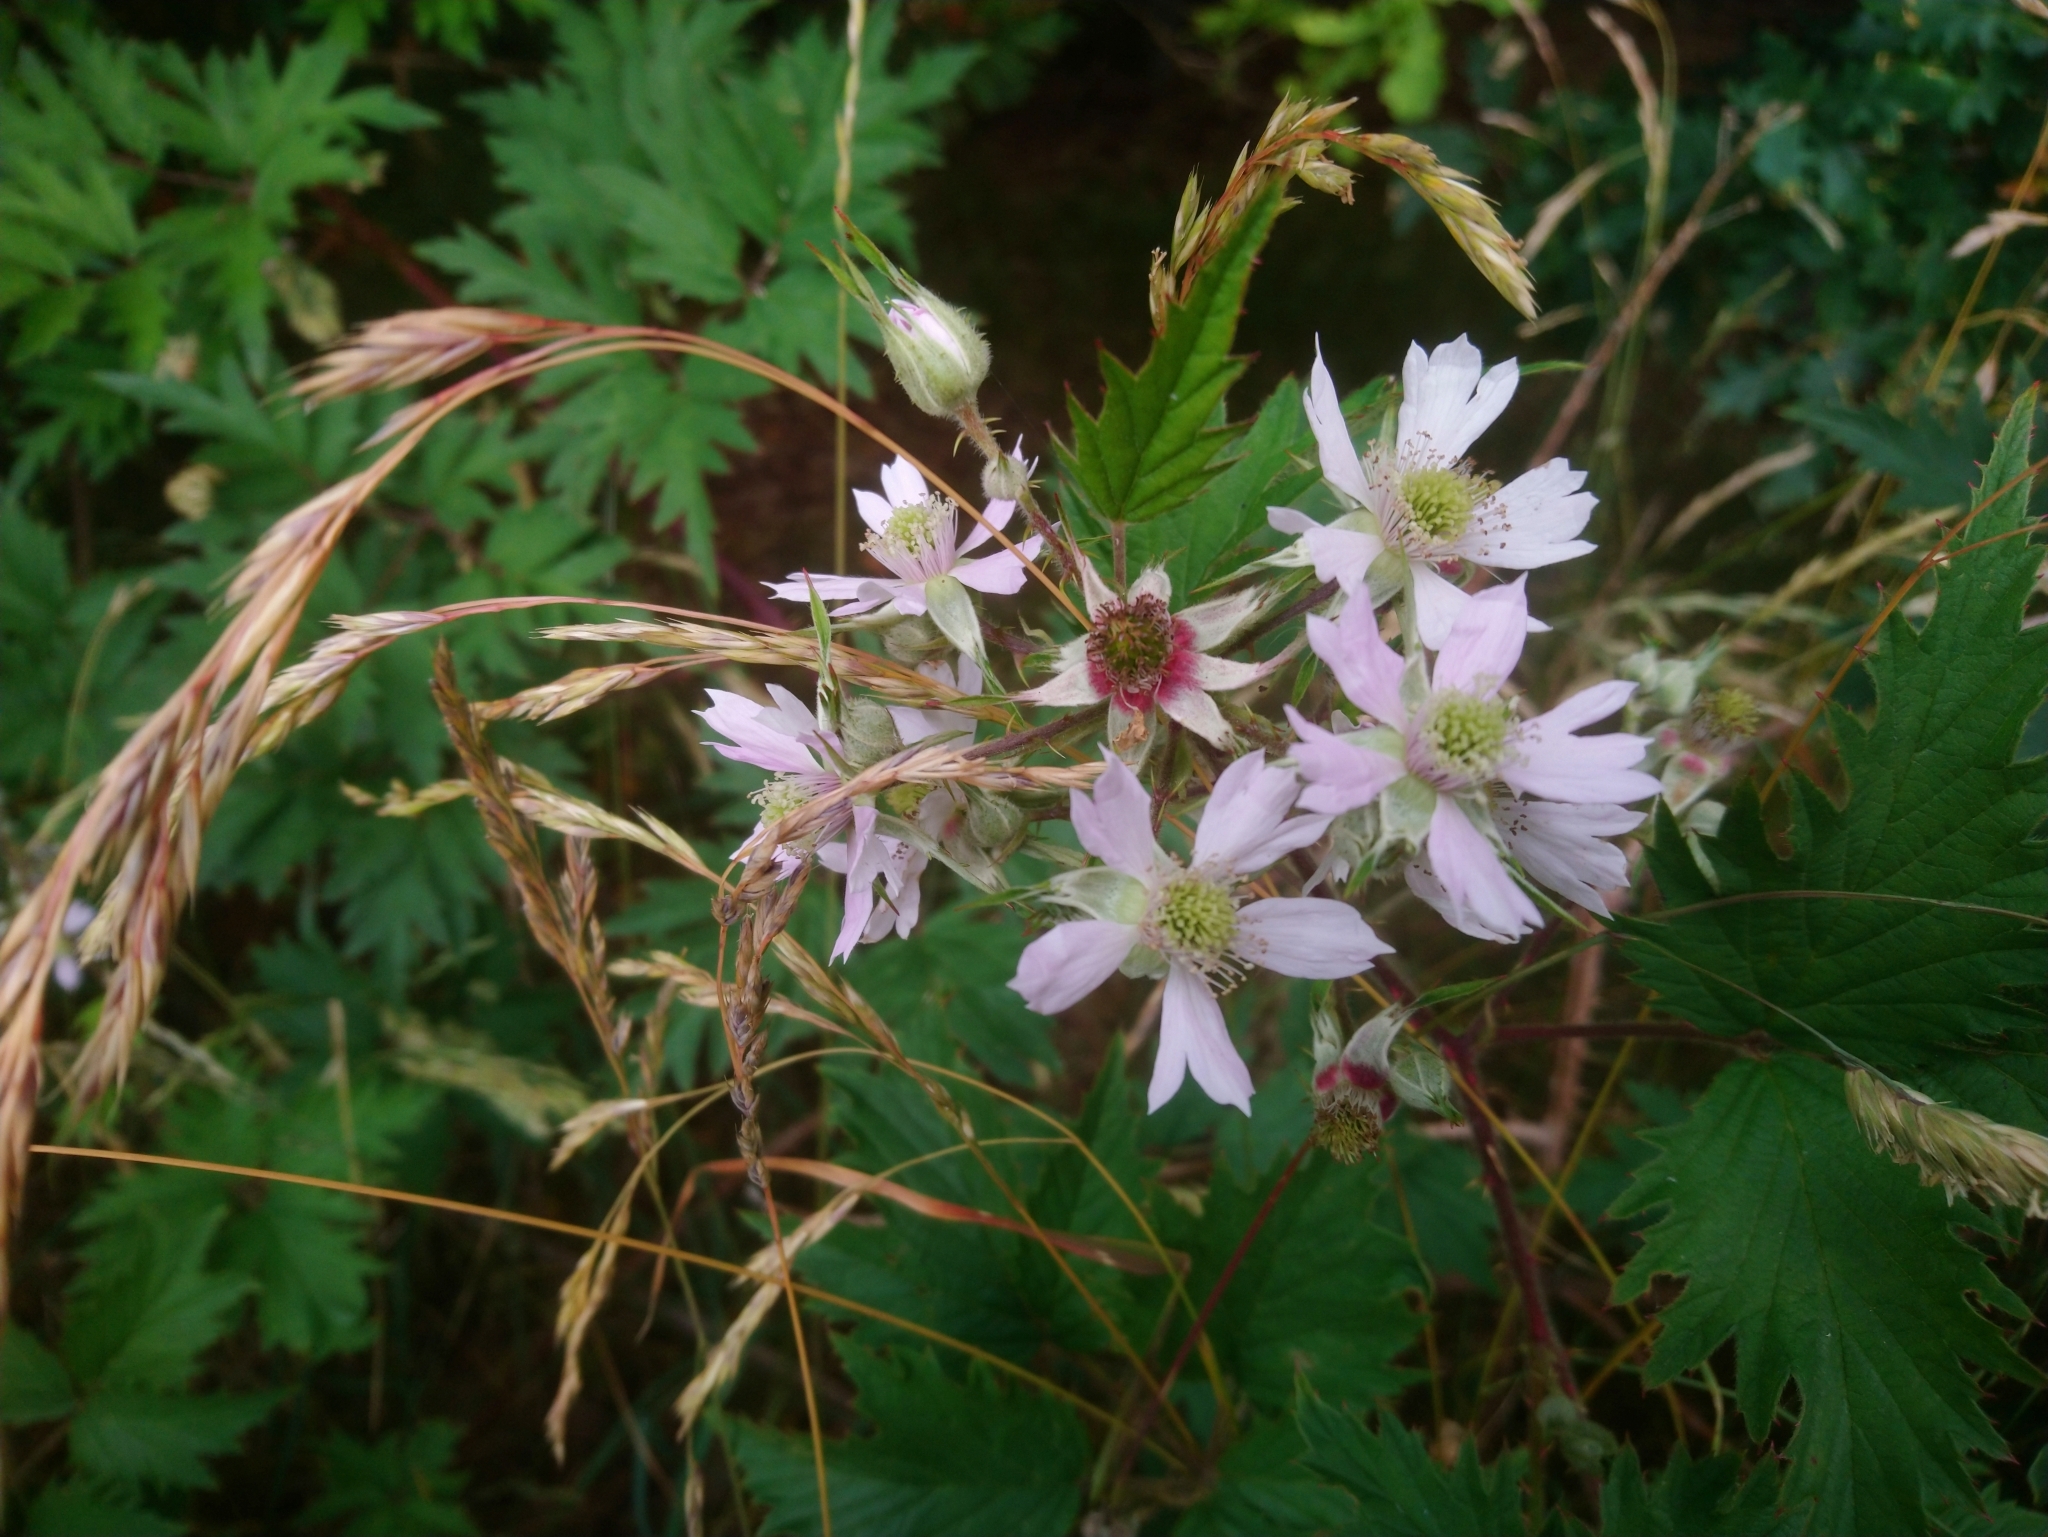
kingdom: Plantae
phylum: Tracheophyta
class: Magnoliopsida
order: Rosales
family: Rosaceae
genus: Rubus
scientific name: Rubus laciniatus
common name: Evergreen blackberry
